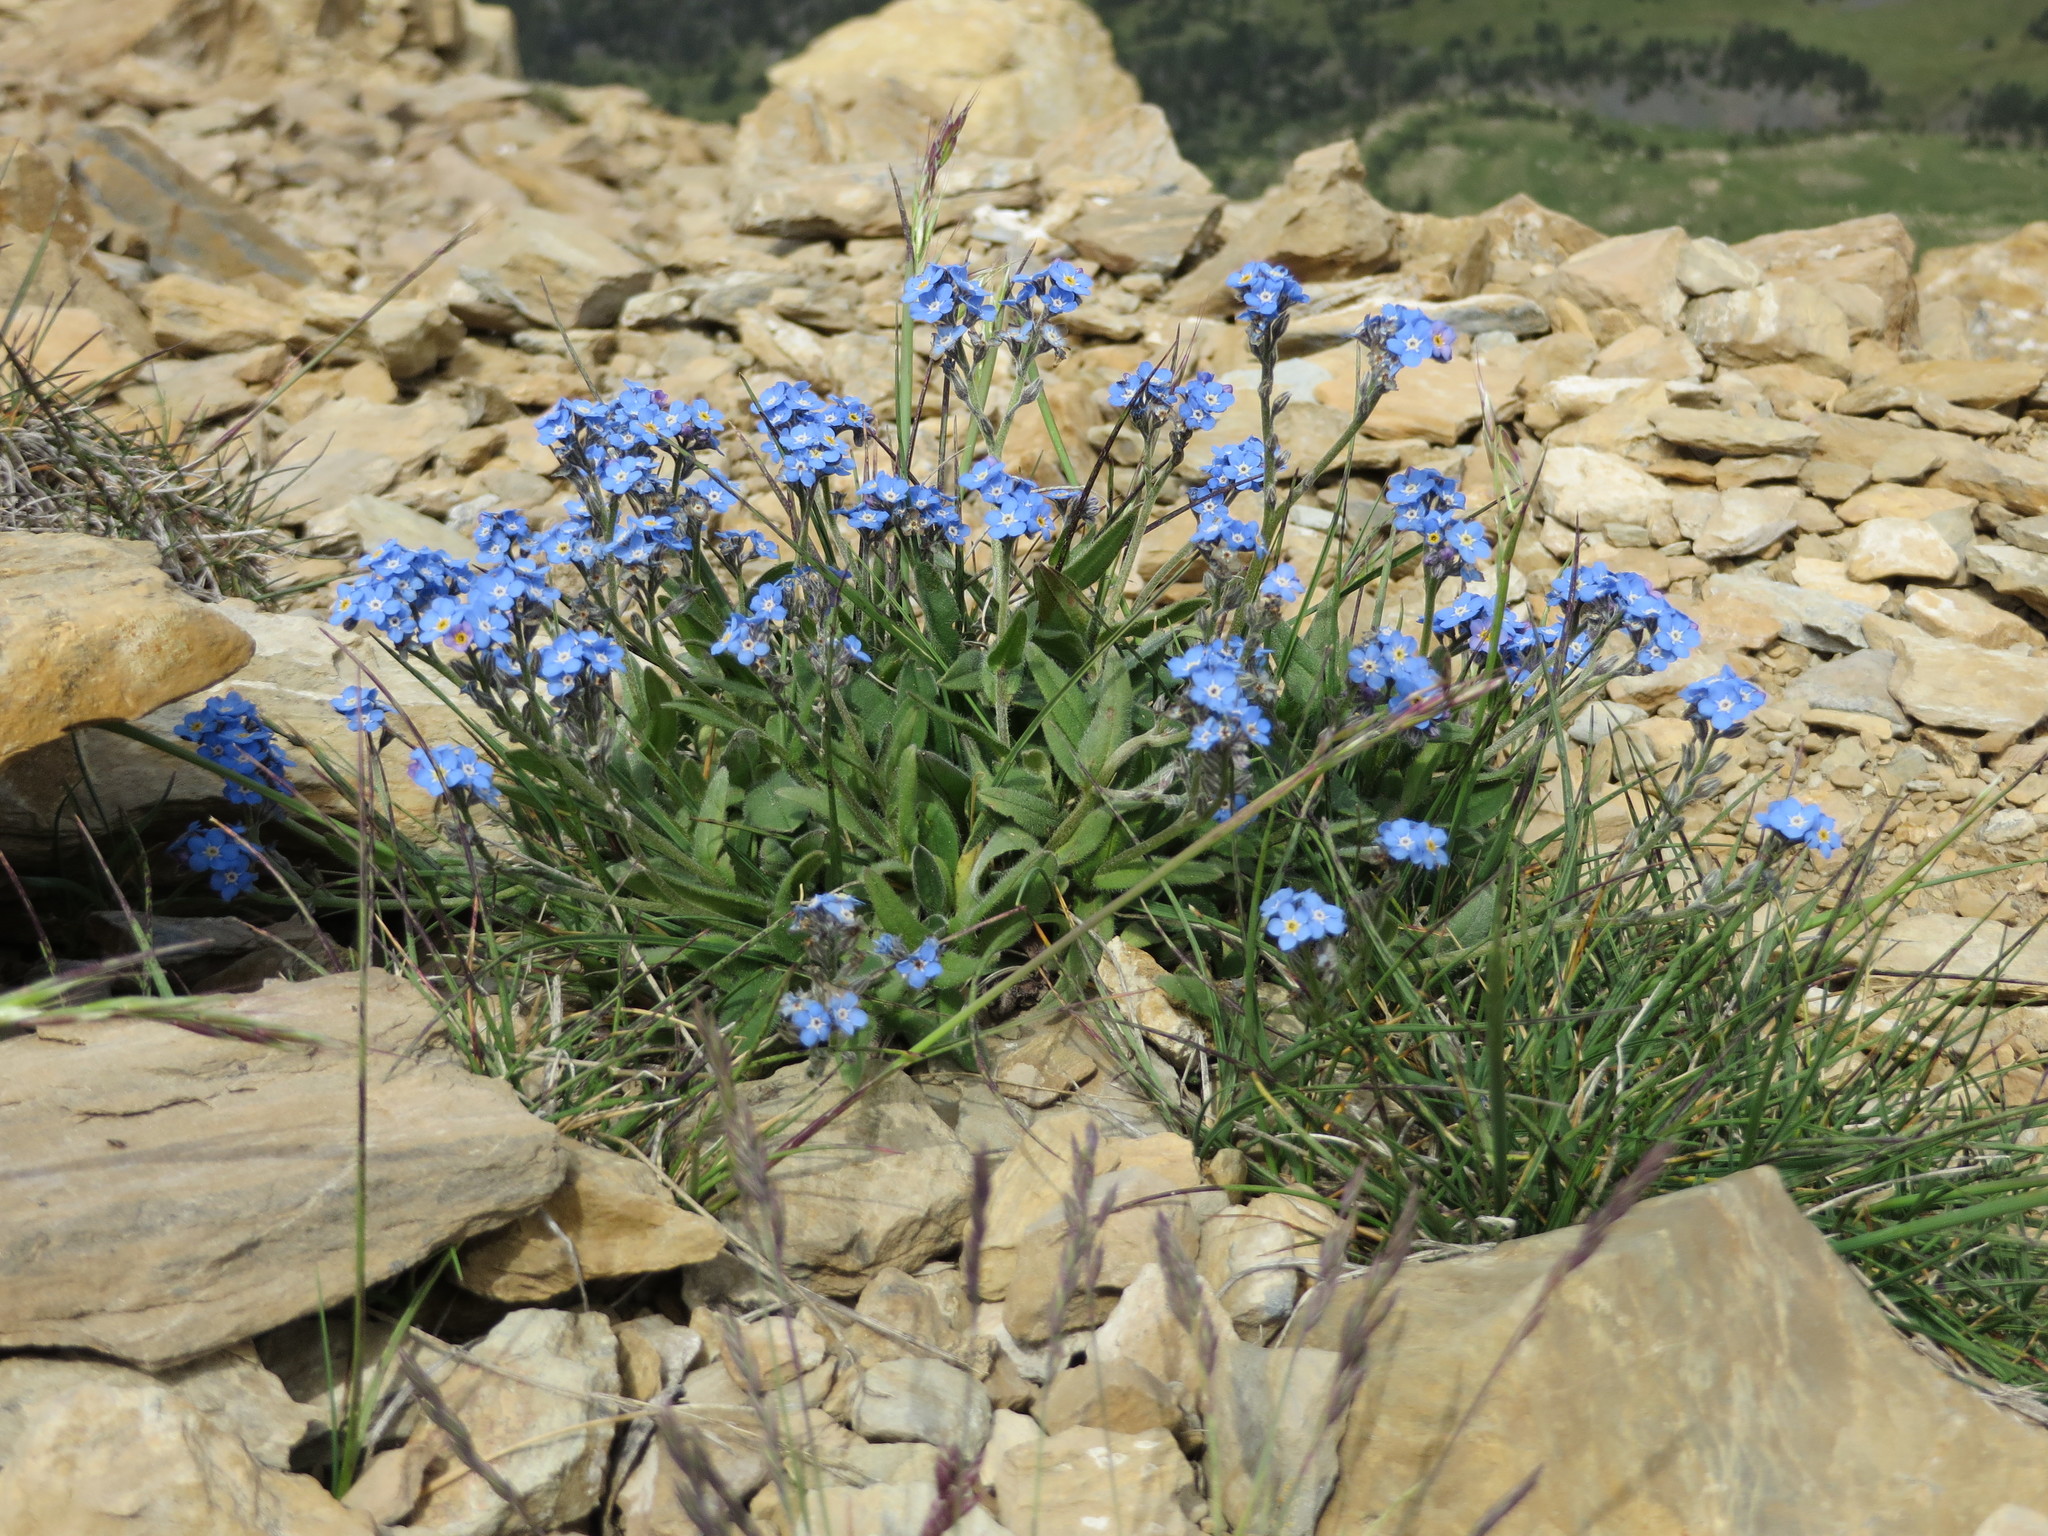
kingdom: Plantae
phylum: Tracheophyta
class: Magnoliopsida
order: Boraginales
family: Boraginaceae
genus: Myosotis
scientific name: Myosotis alpestris
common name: Alpine forget-me-not
